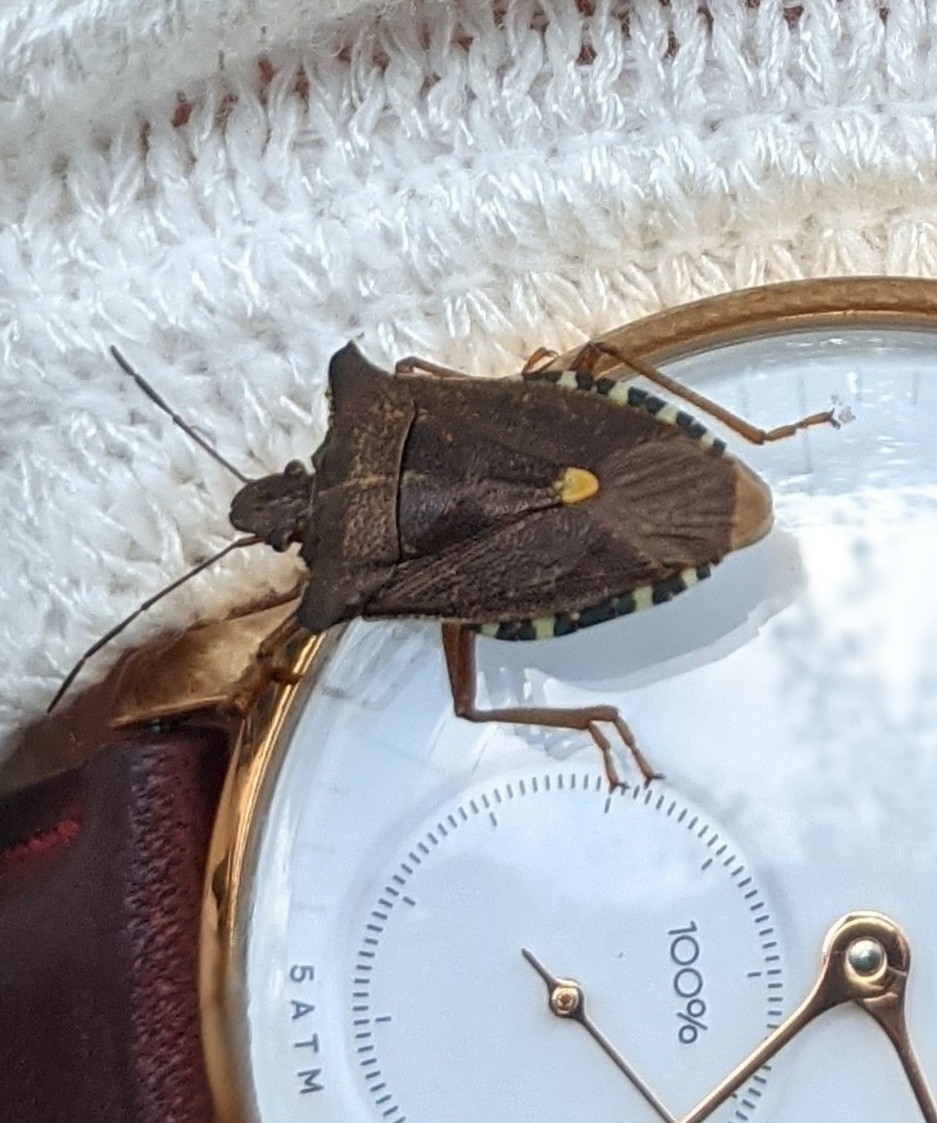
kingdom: Animalia
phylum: Arthropoda
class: Insecta
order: Hemiptera
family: Pentatomidae
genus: Pentatoma
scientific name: Pentatoma rufipes
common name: Forest bug
